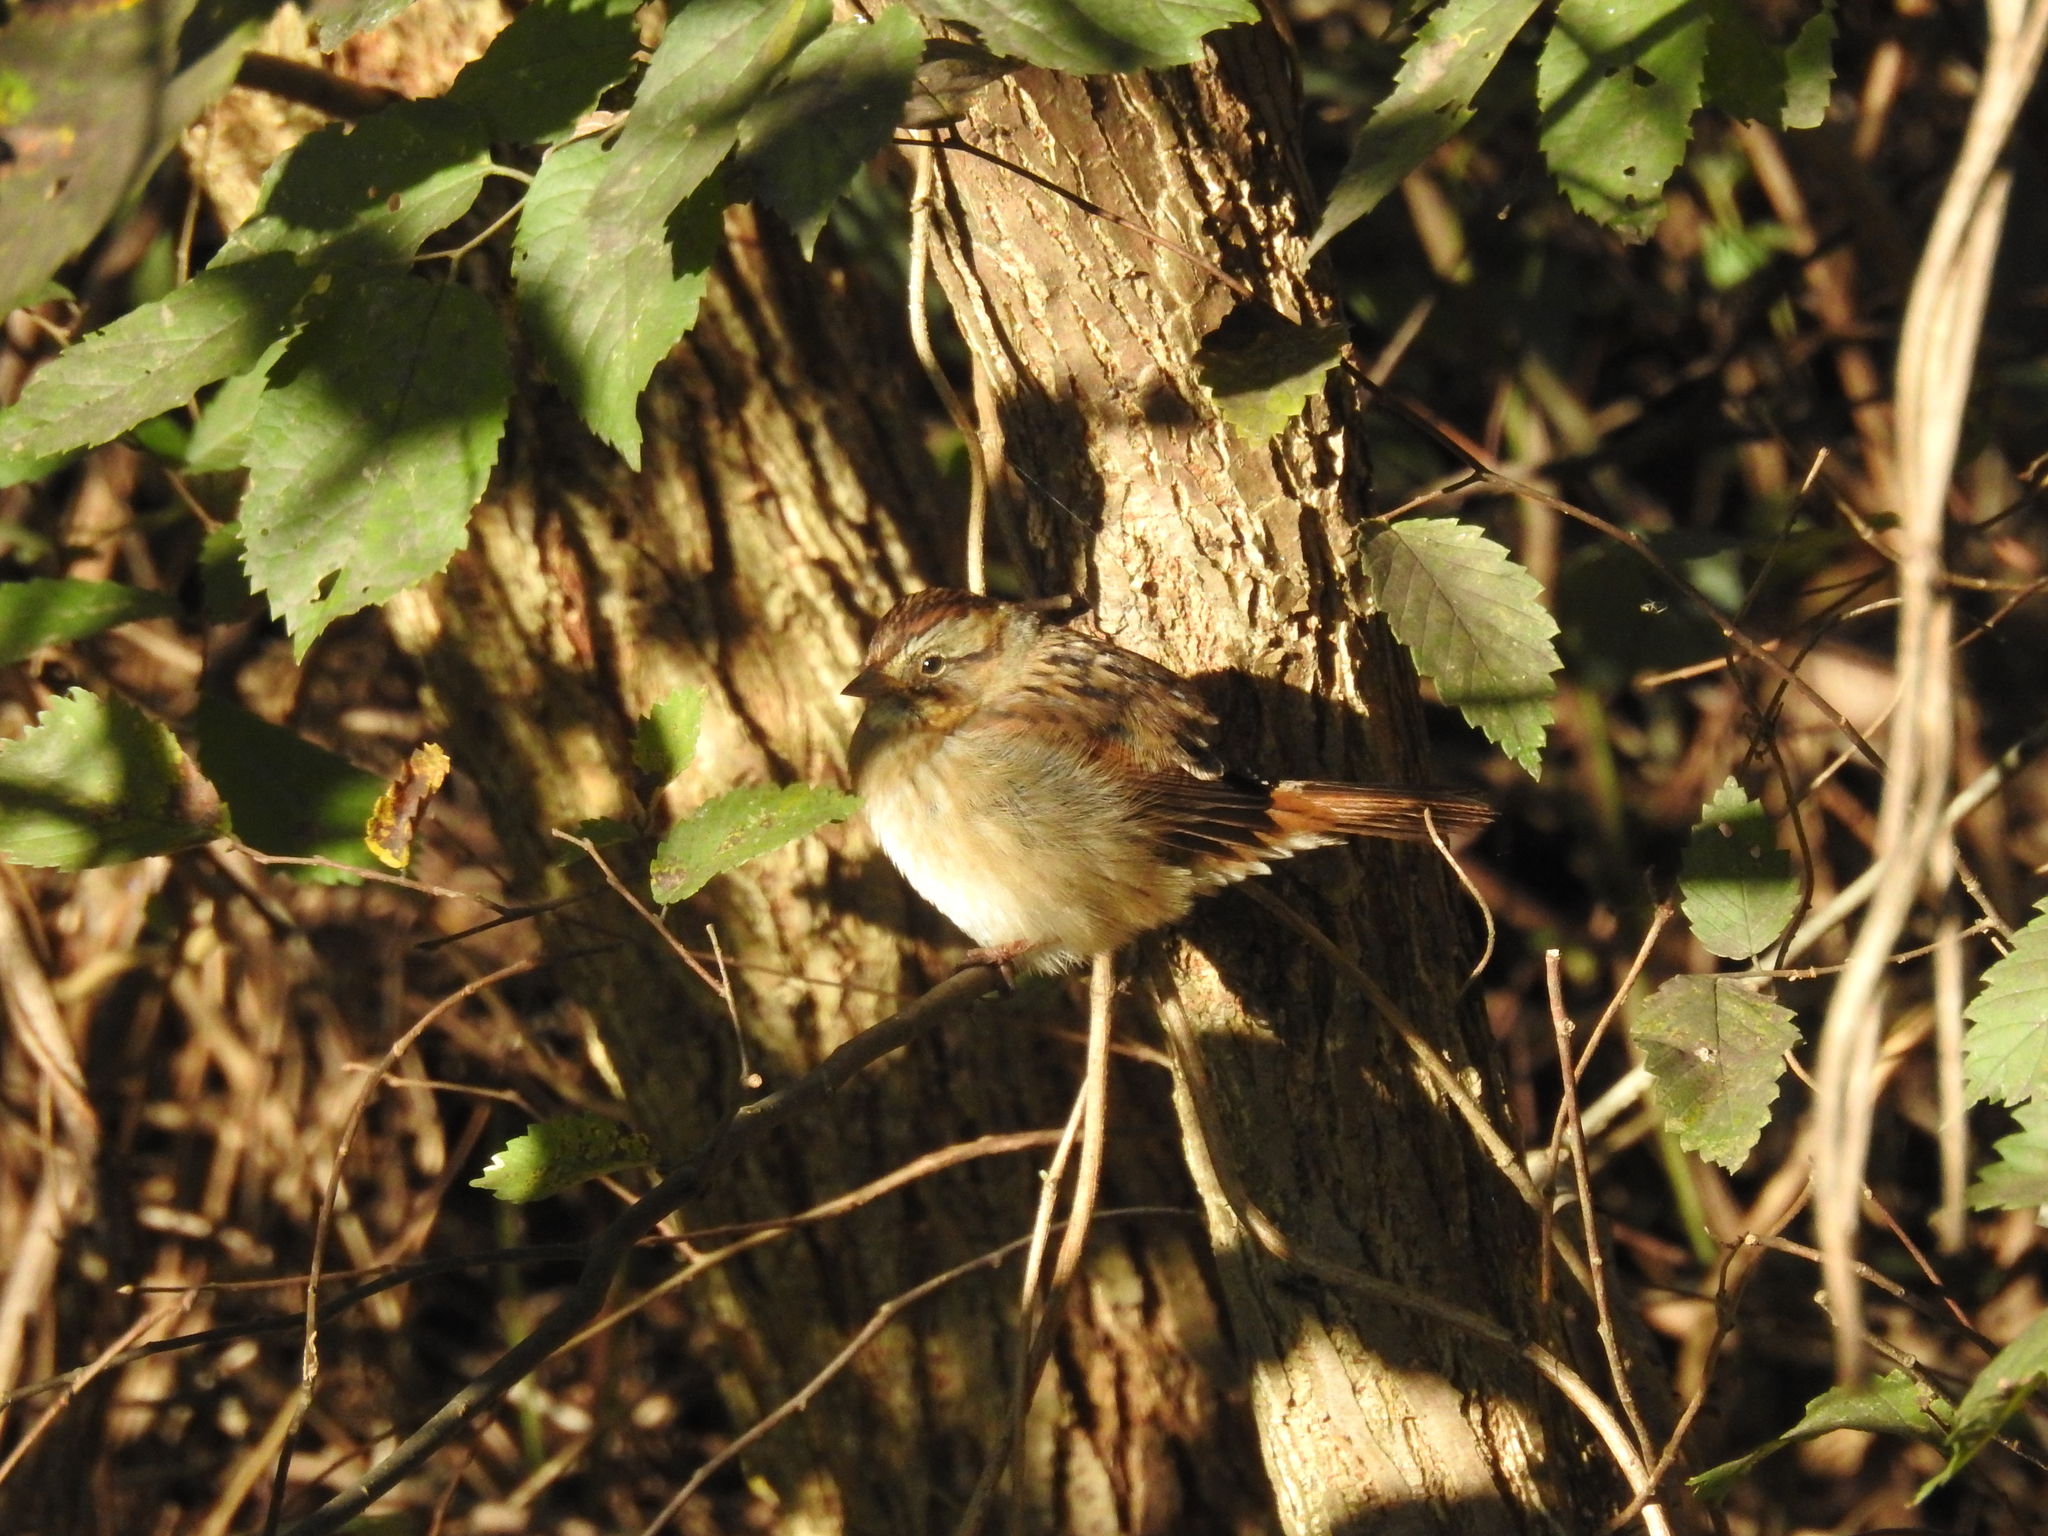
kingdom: Animalia
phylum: Chordata
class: Aves
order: Passeriformes
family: Passerellidae
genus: Melospiza
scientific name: Melospiza georgiana
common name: Swamp sparrow
